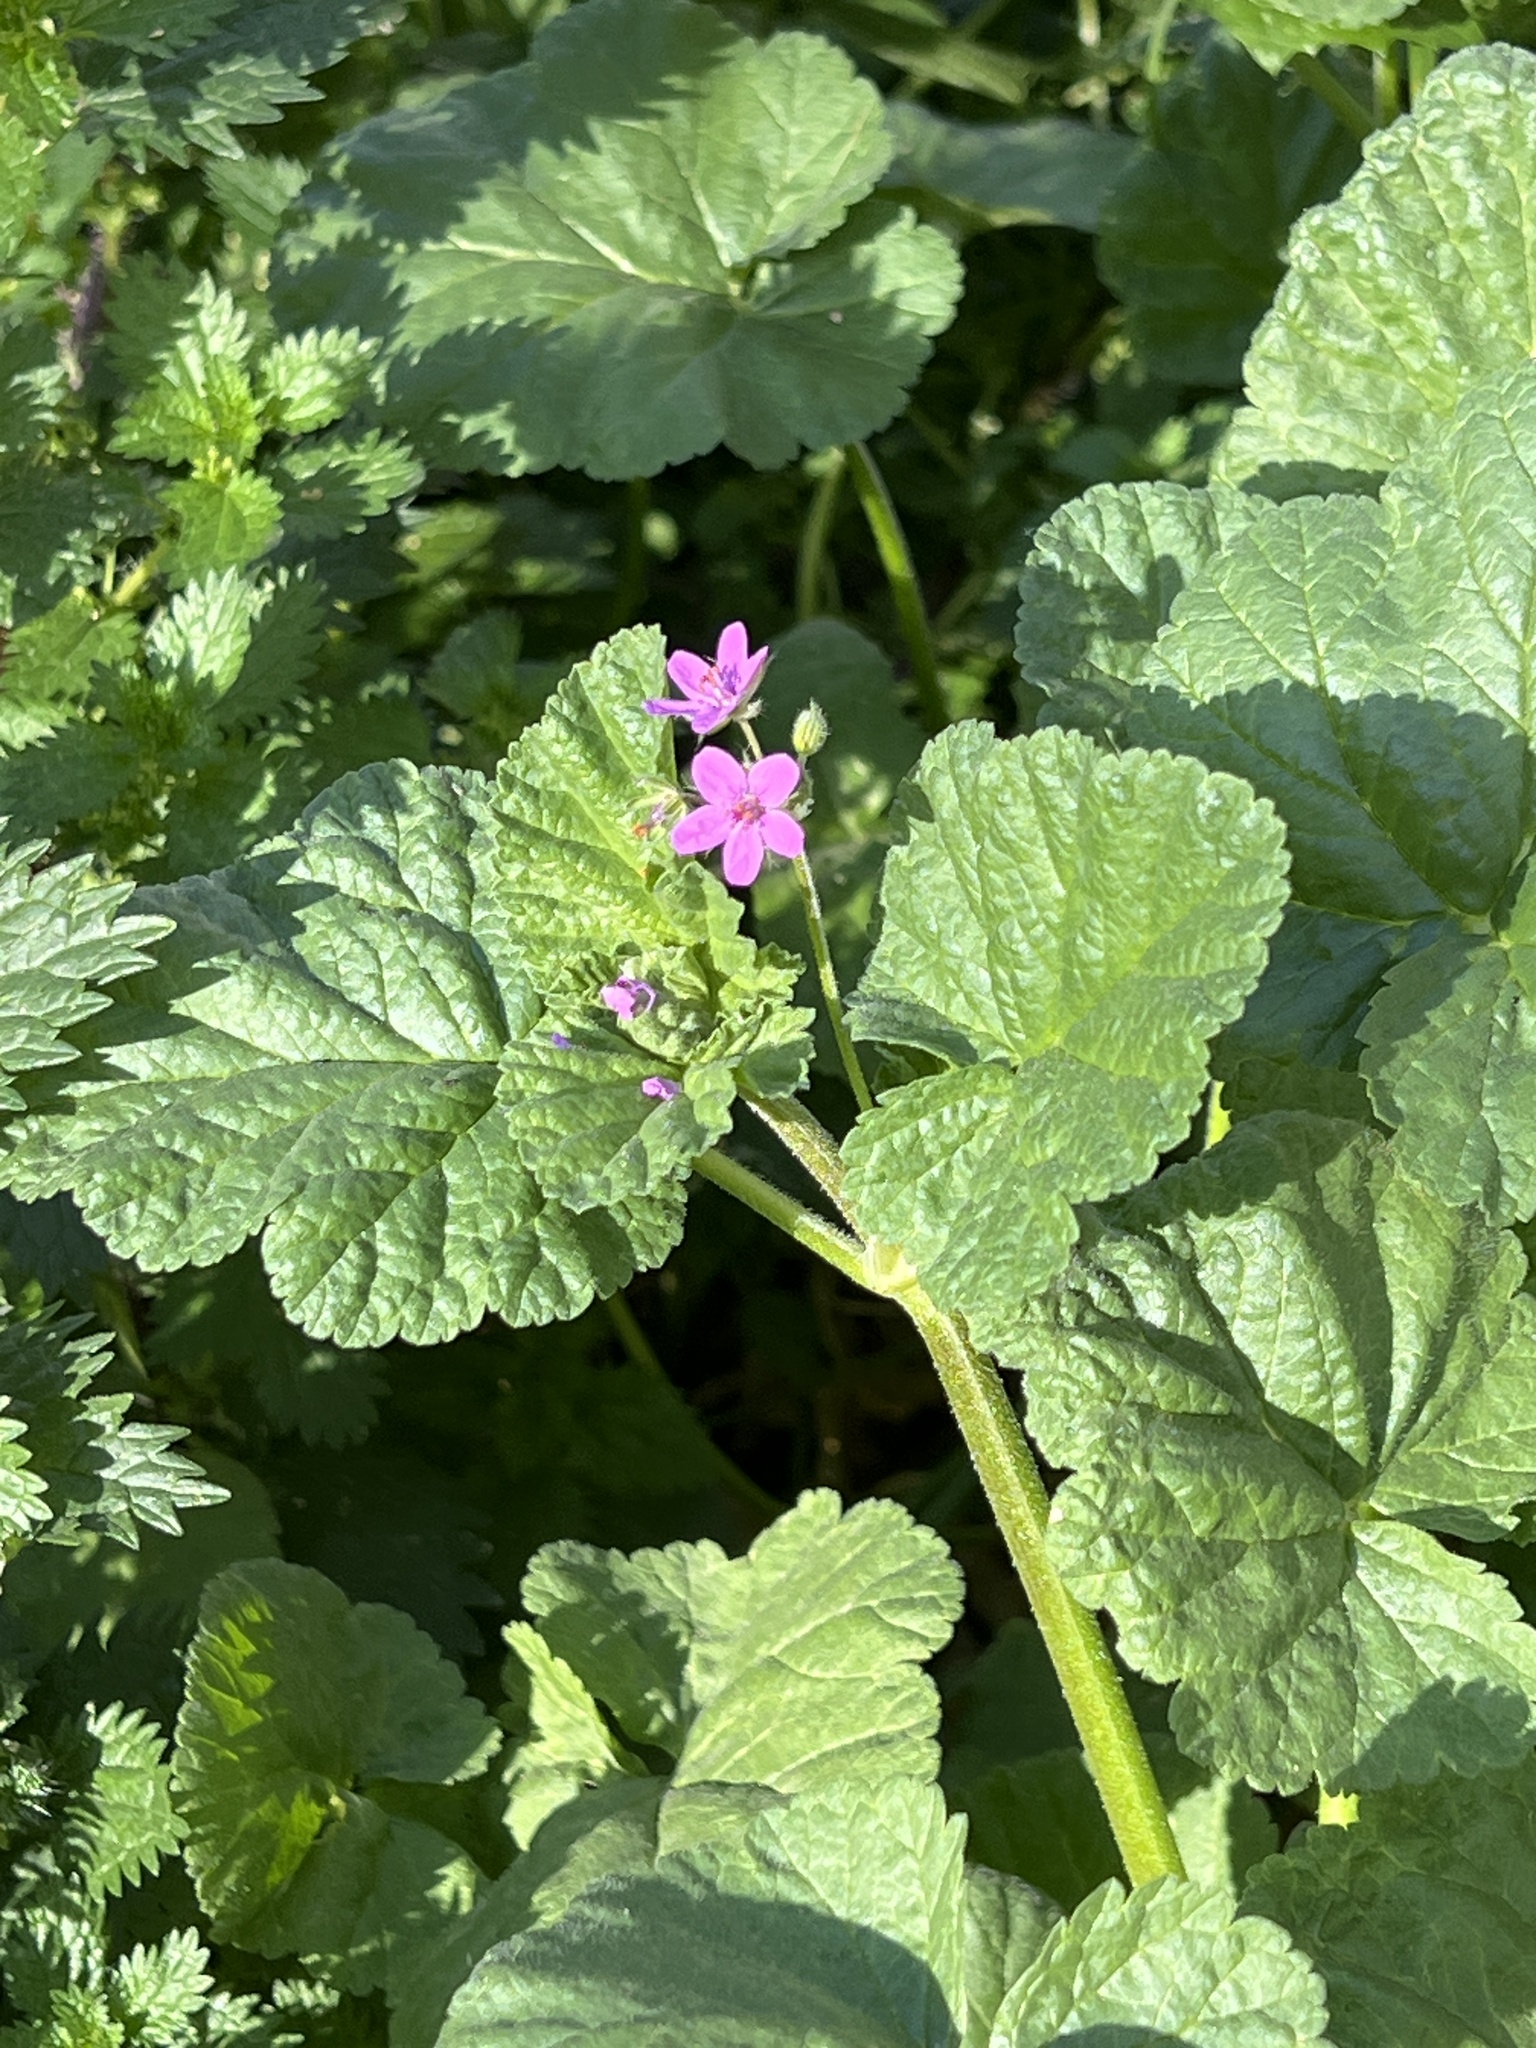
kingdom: Plantae
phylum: Tracheophyta
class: Magnoliopsida
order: Geraniales
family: Geraniaceae
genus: Erodium
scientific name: Erodium malacoides
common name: Soft stork's-bill
